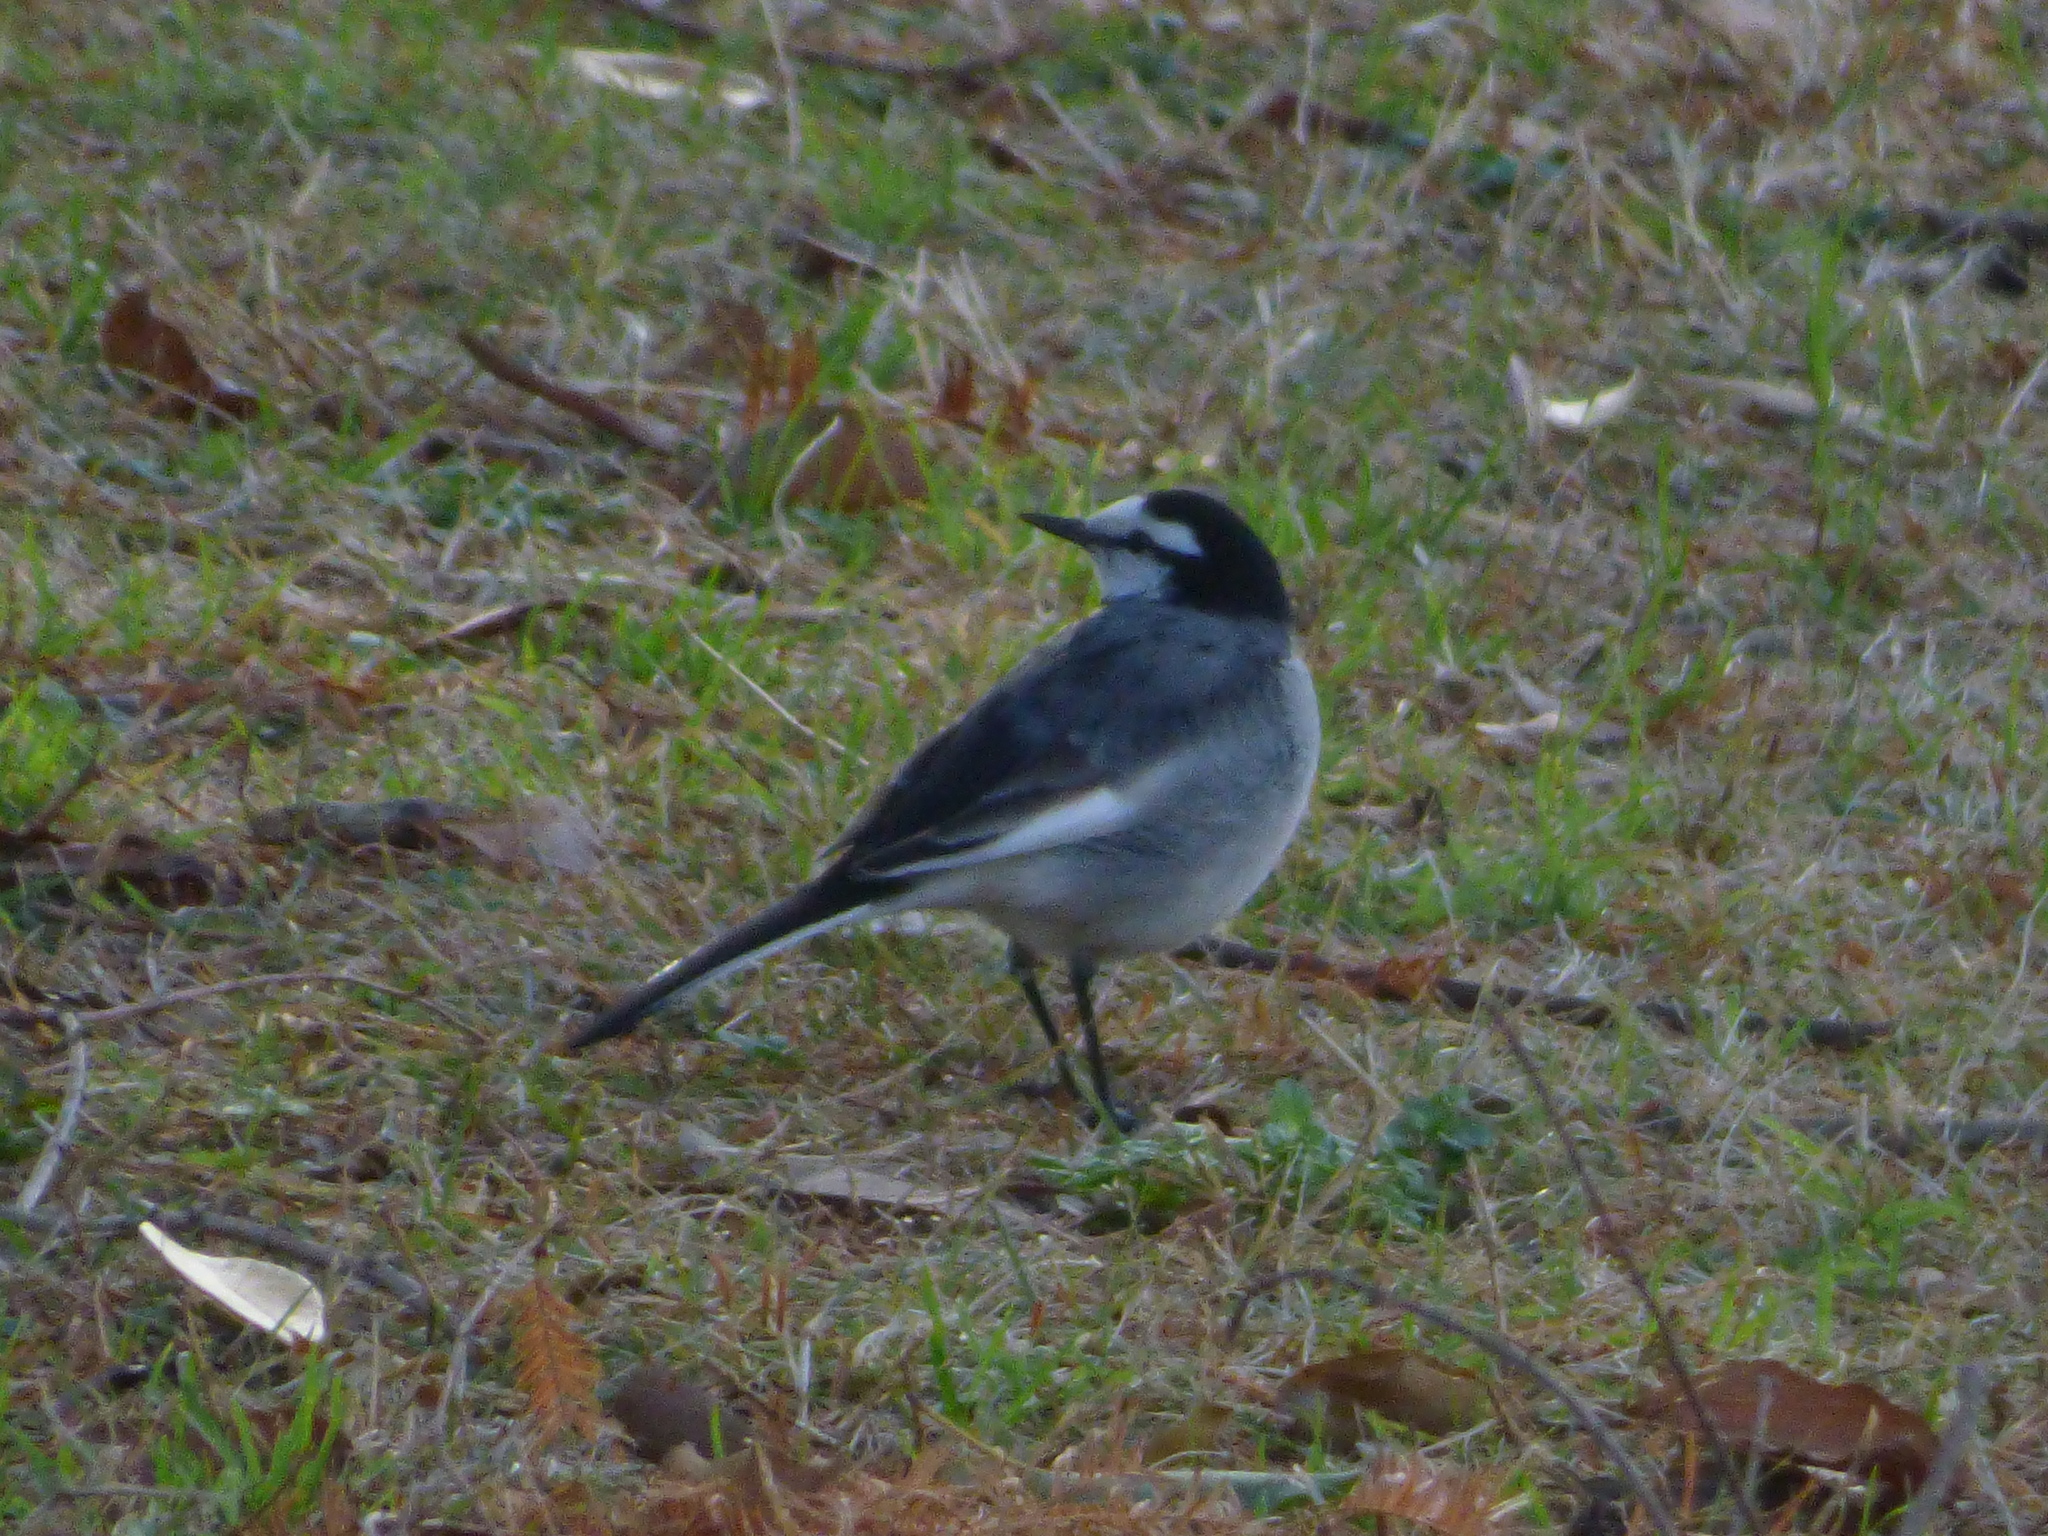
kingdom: Animalia
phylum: Chordata
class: Aves
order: Passeriformes
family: Motacillidae
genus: Motacilla
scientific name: Motacilla alba
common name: White wagtail
